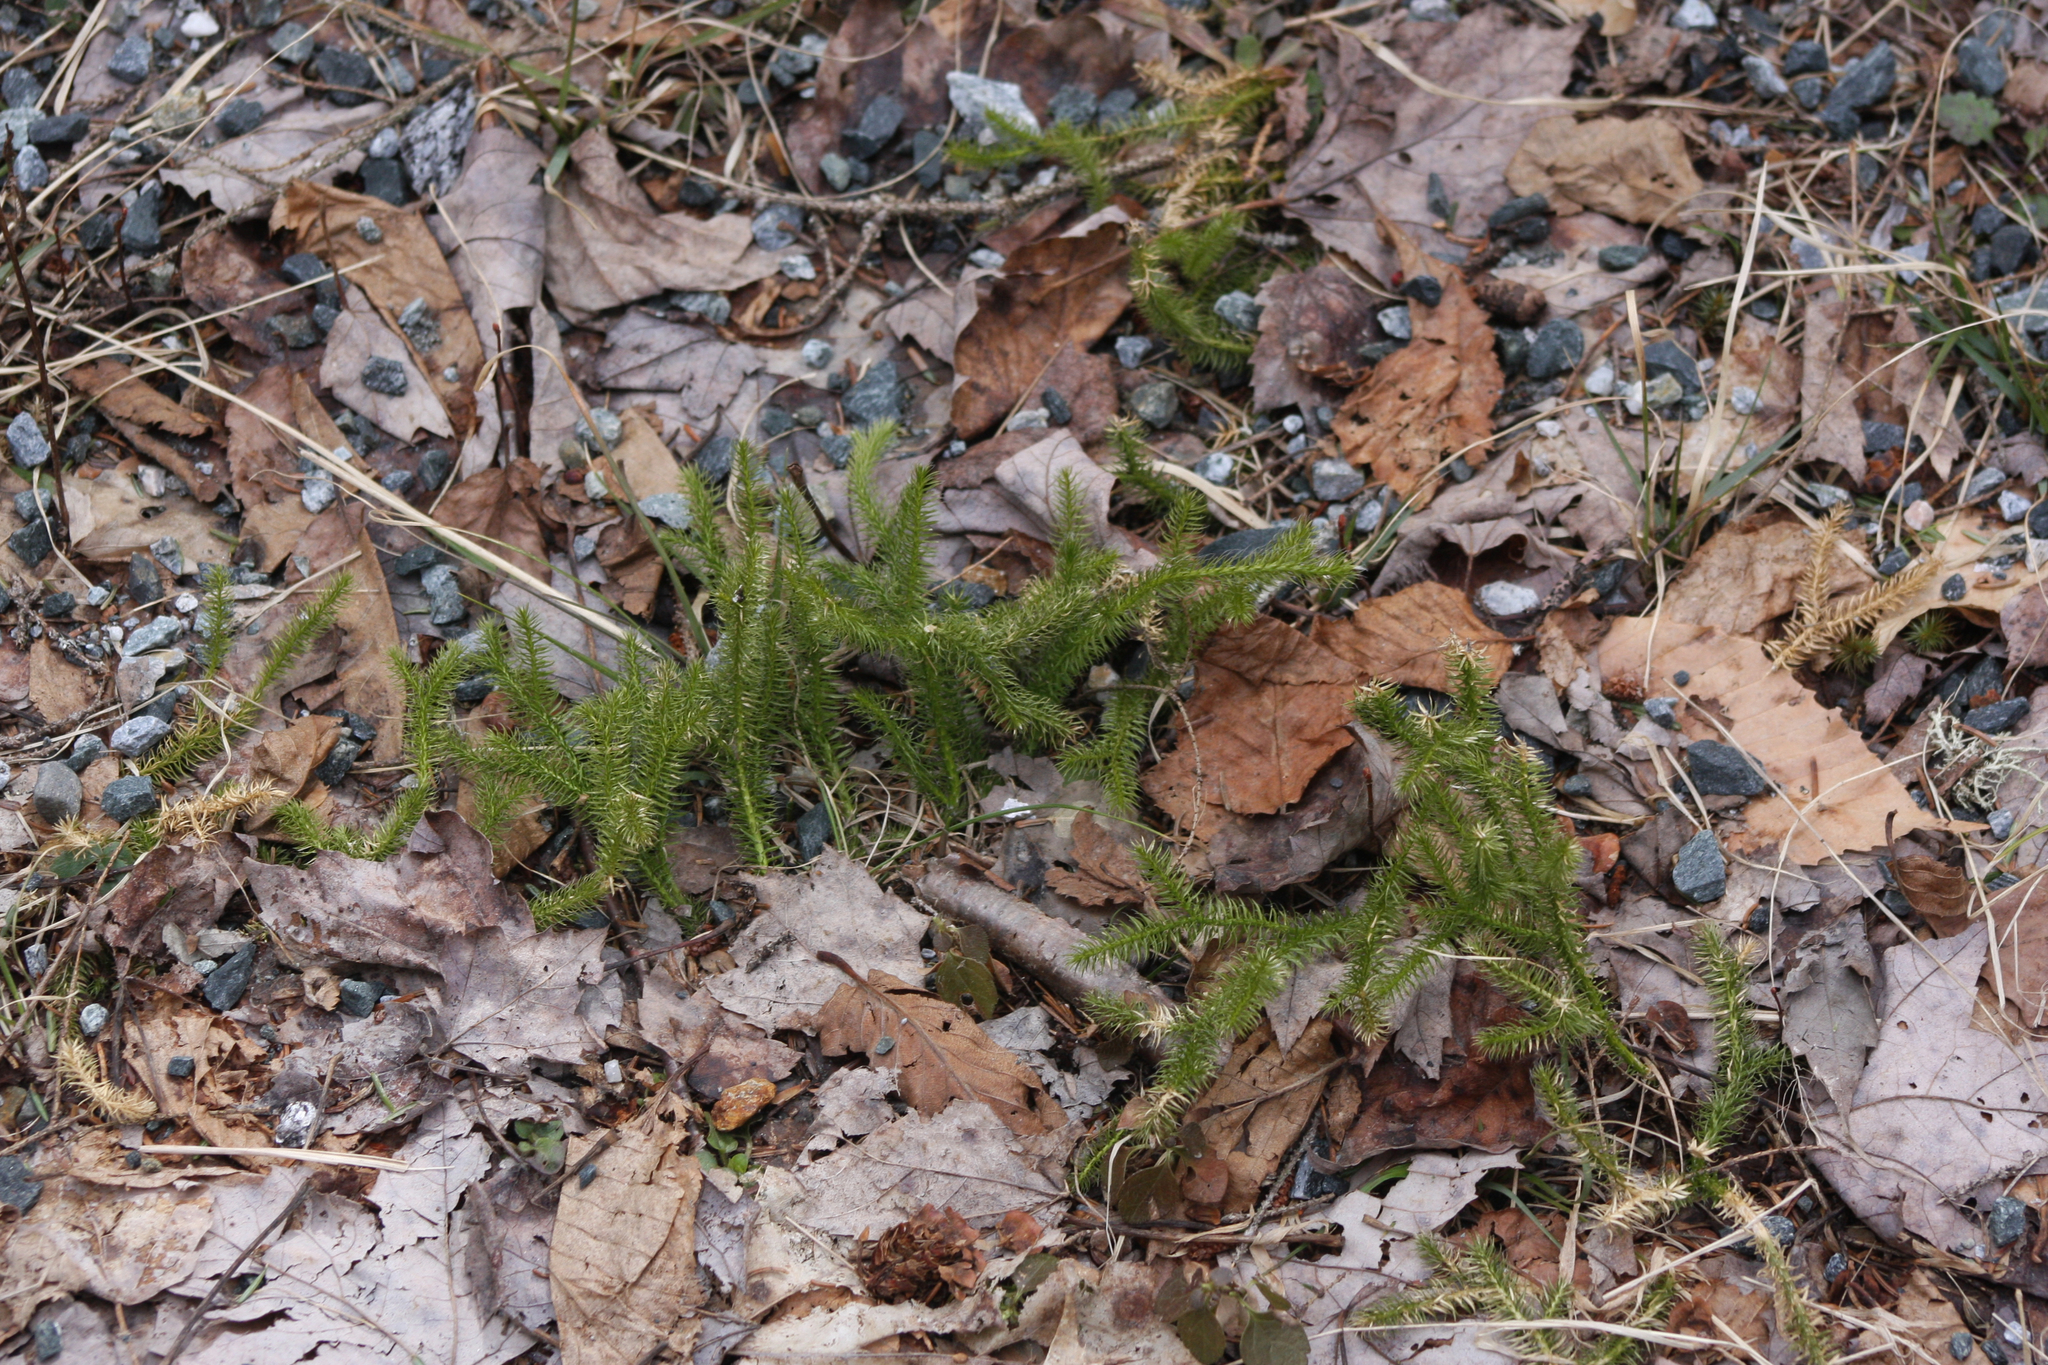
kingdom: Plantae
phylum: Tracheophyta
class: Lycopodiopsida
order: Lycopodiales
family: Lycopodiaceae
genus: Lycopodium
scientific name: Lycopodium clavatum
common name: Stag's-horn clubmoss
